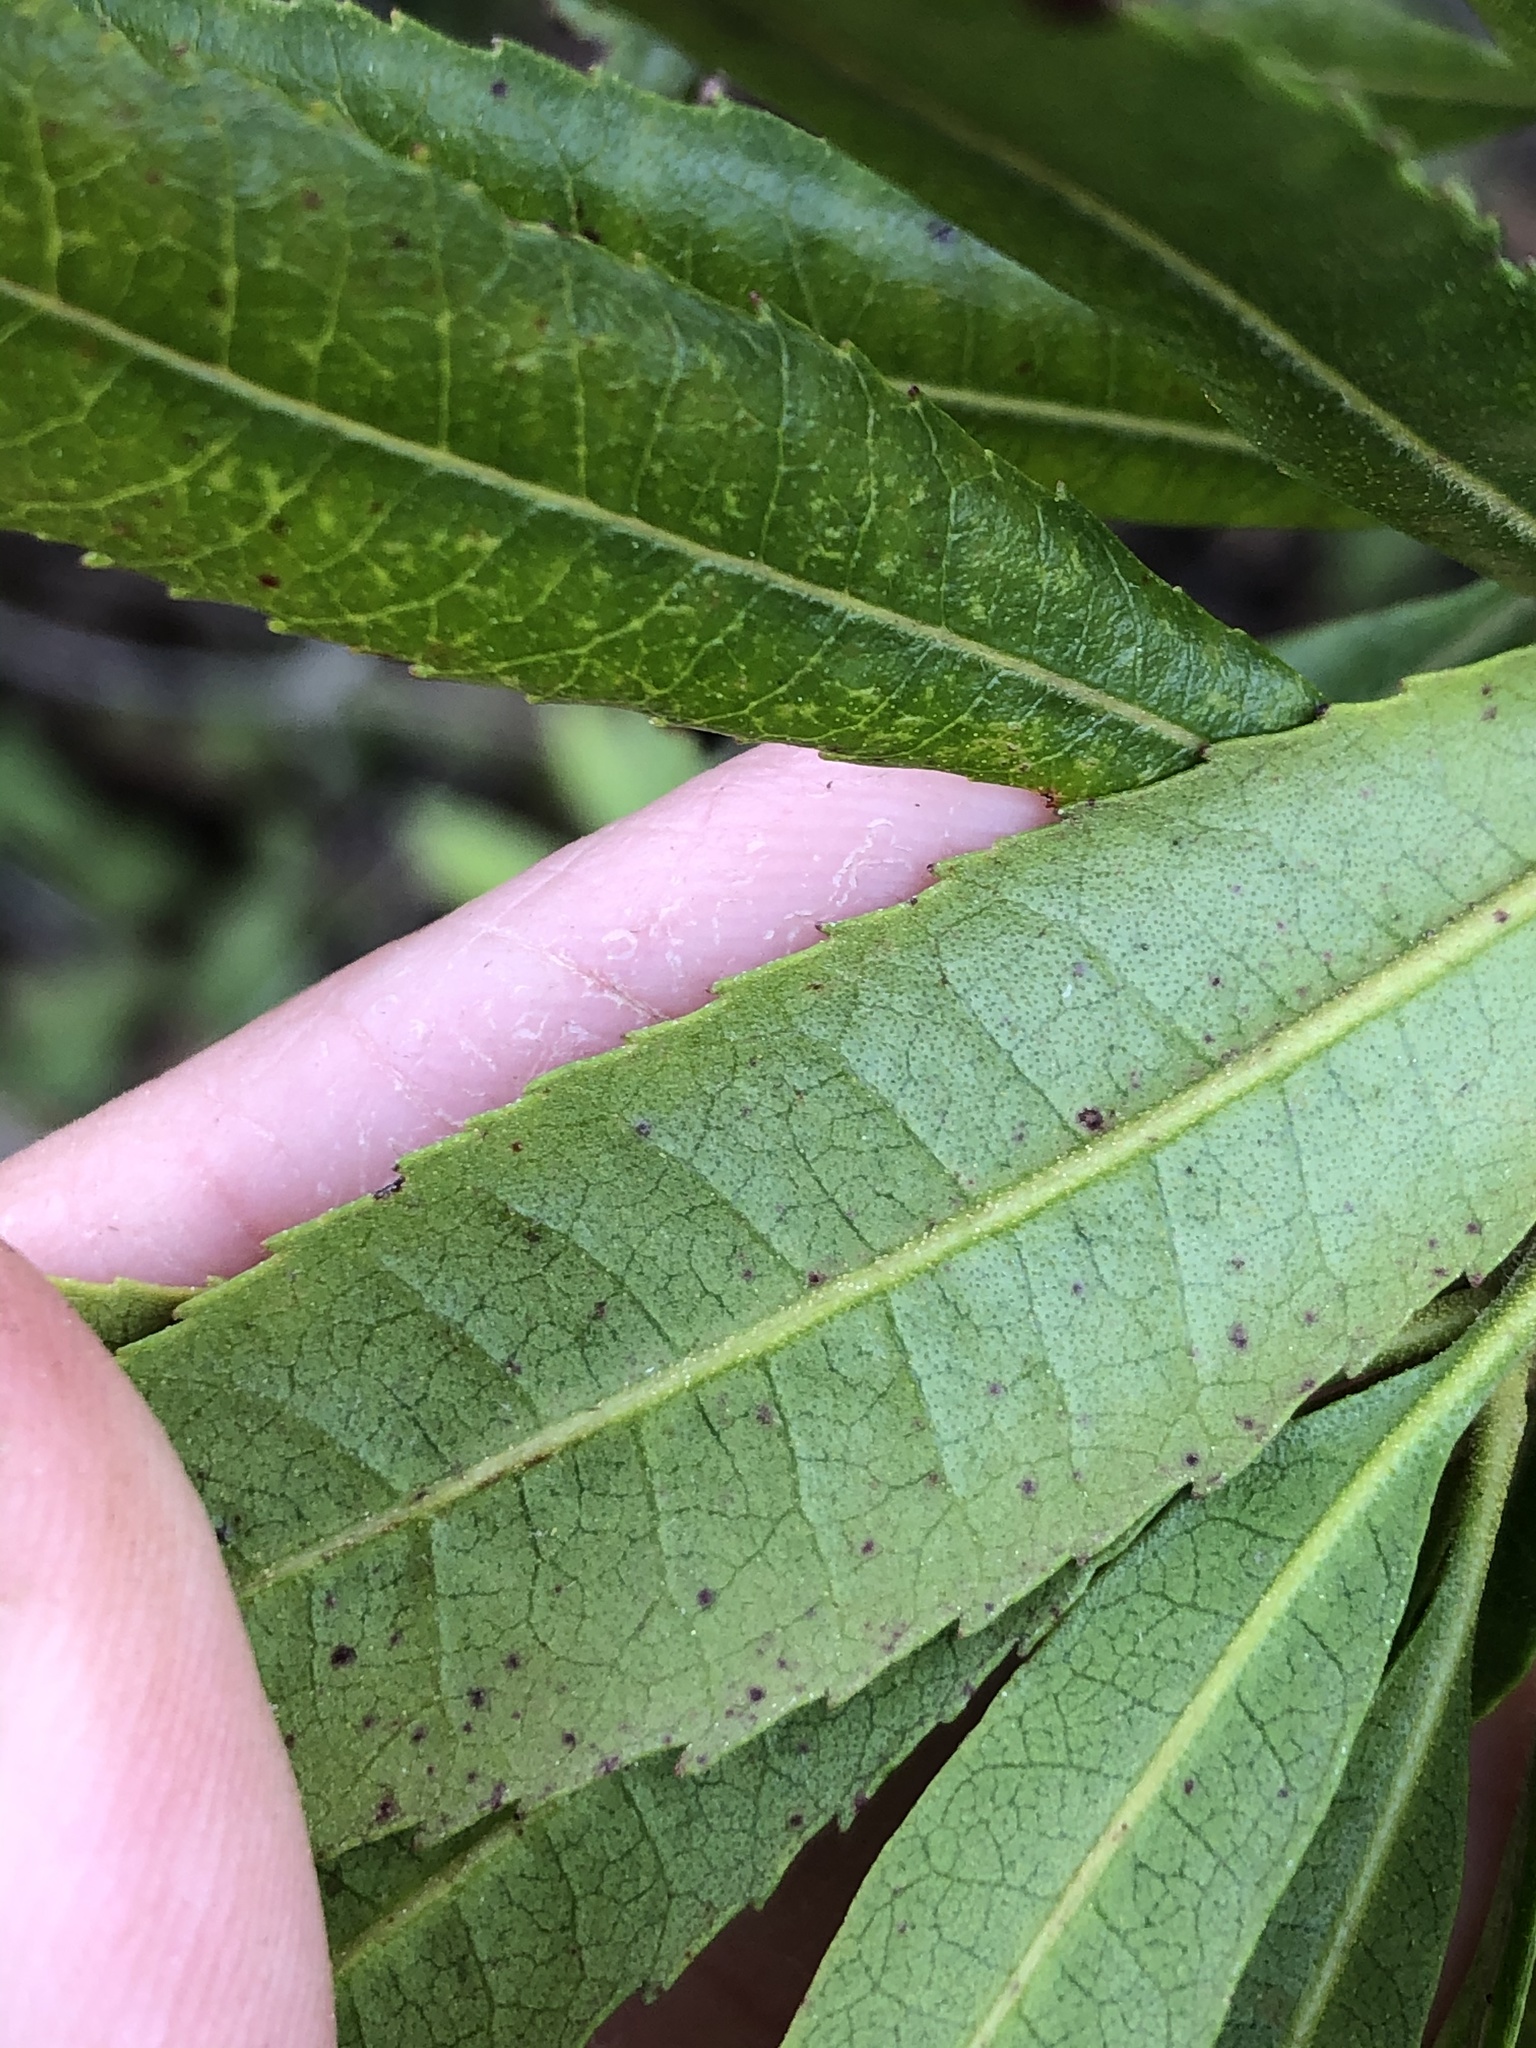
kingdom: Plantae
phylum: Tracheophyta
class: Magnoliopsida
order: Fagales
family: Myricaceae
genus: Morella
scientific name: Morella californica
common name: California wax-myrtle
